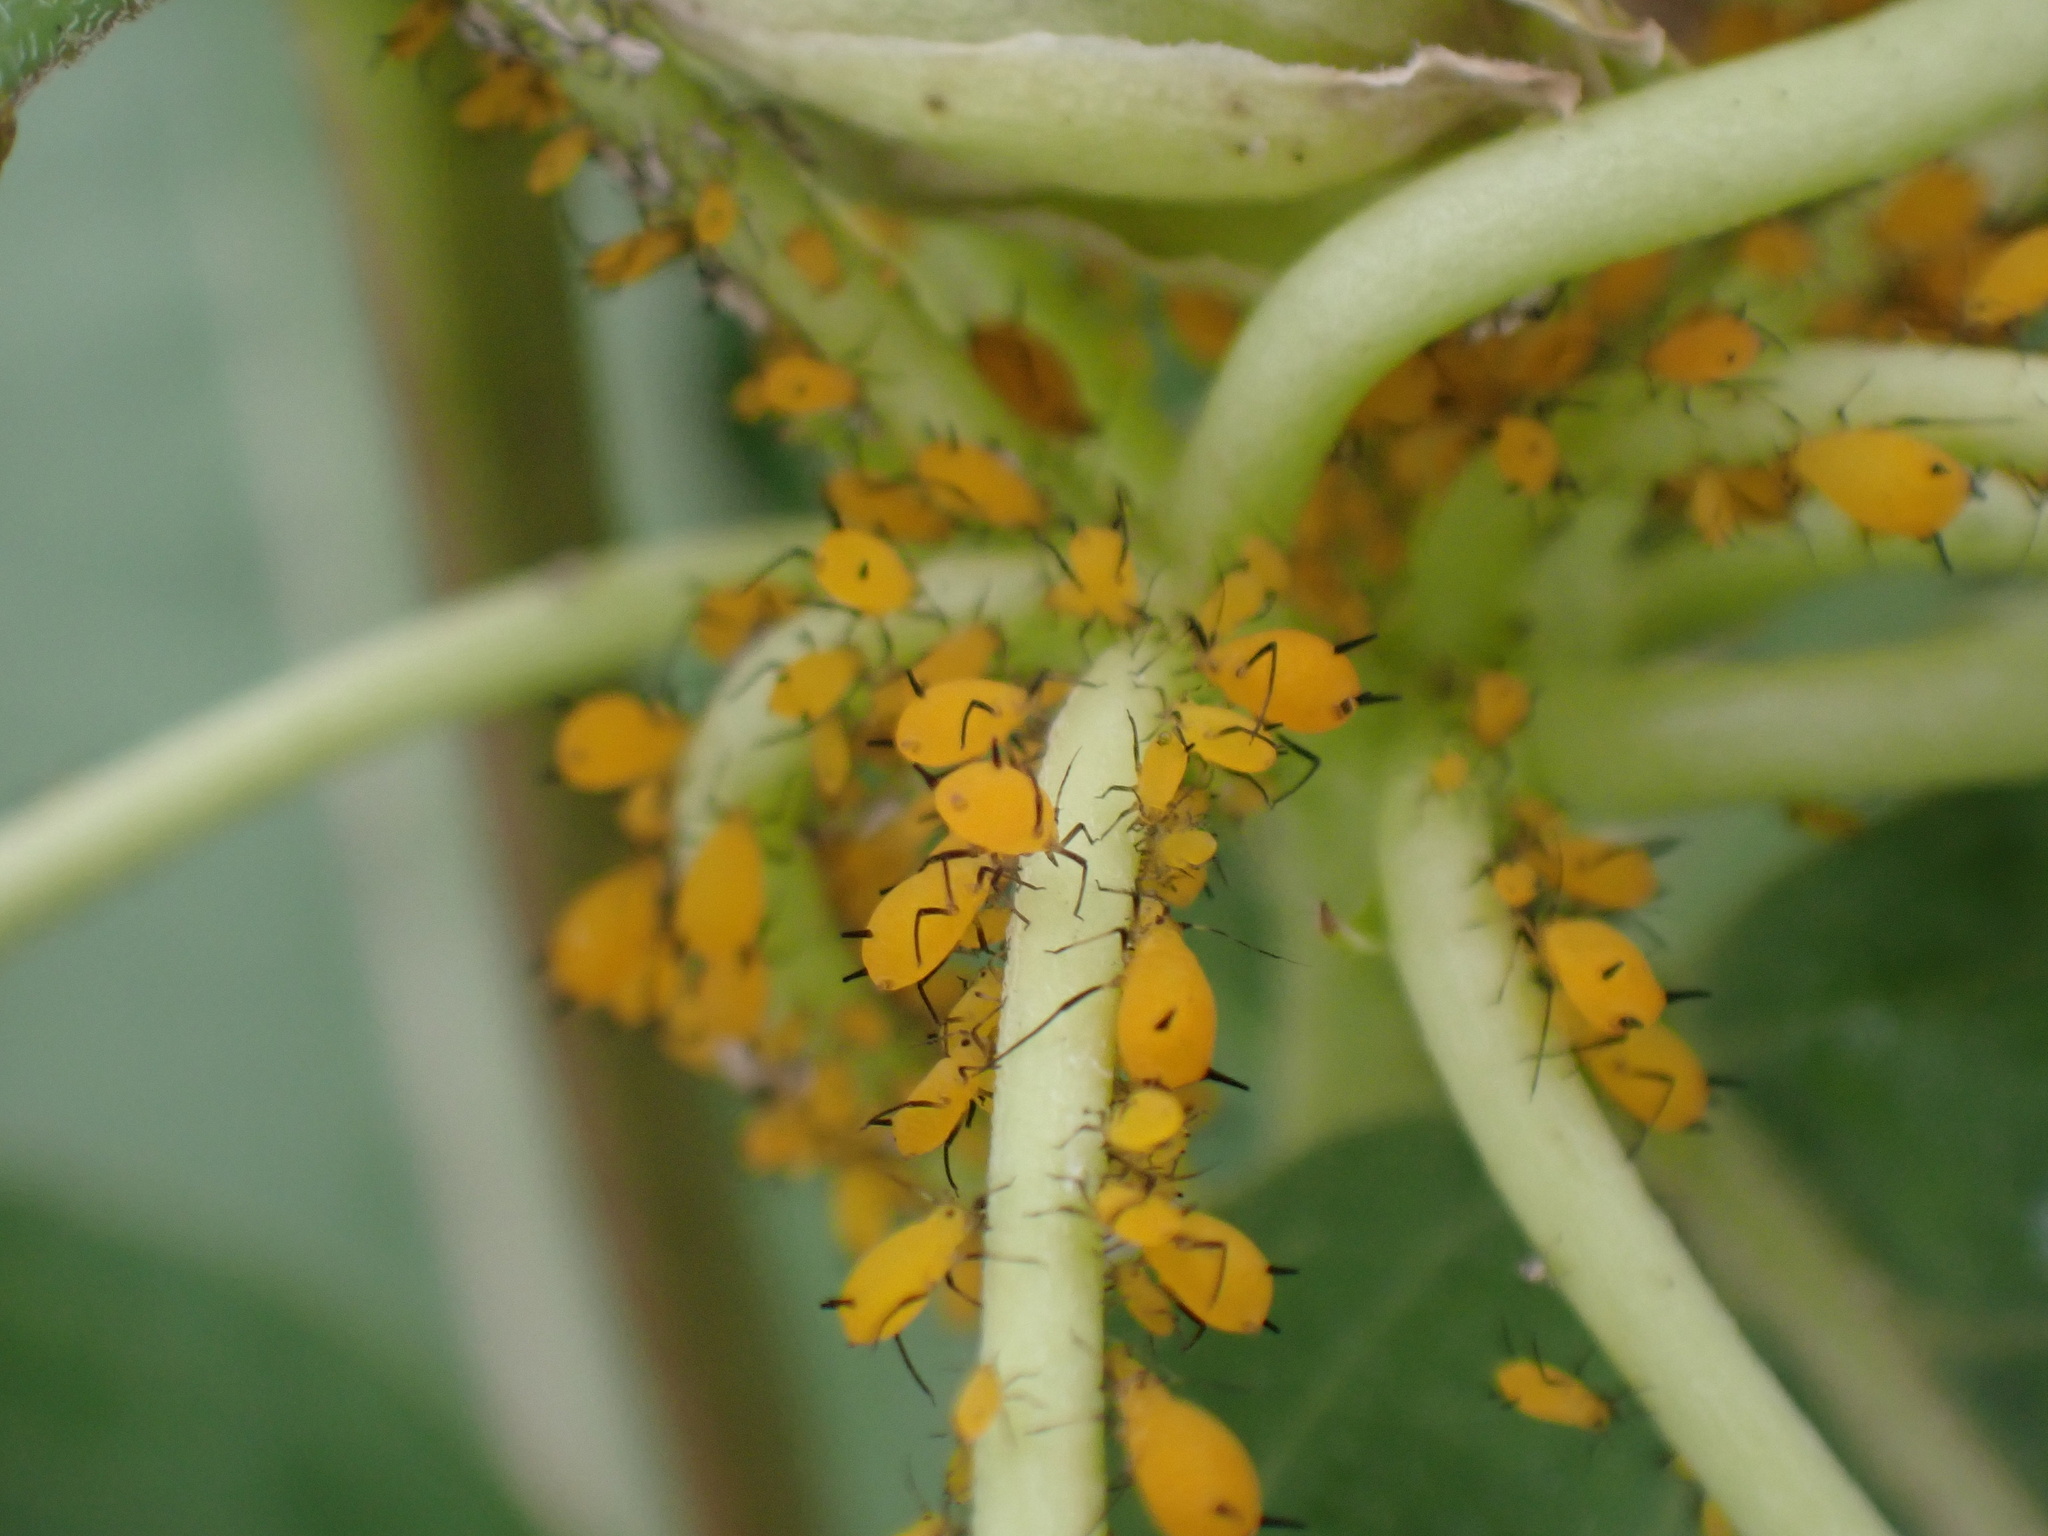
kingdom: Animalia
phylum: Arthropoda
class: Insecta
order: Hemiptera
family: Aphididae
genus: Aphis
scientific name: Aphis nerii
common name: Oleander aphid
